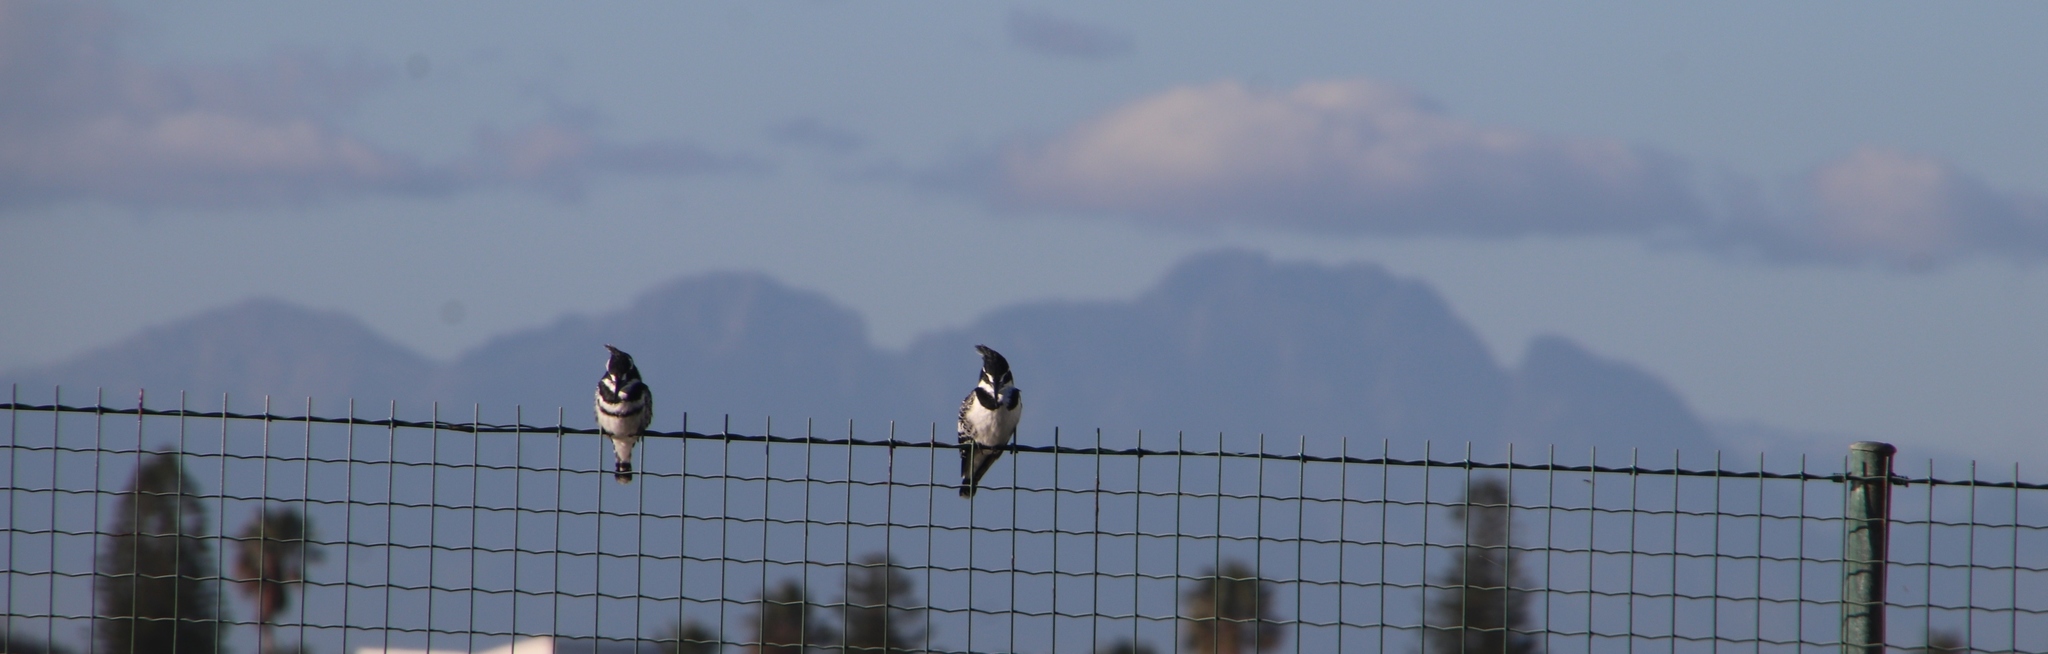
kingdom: Animalia
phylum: Chordata
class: Aves
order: Coraciiformes
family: Alcedinidae
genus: Ceryle
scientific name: Ceryle rudis
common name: Pied kingfisher
